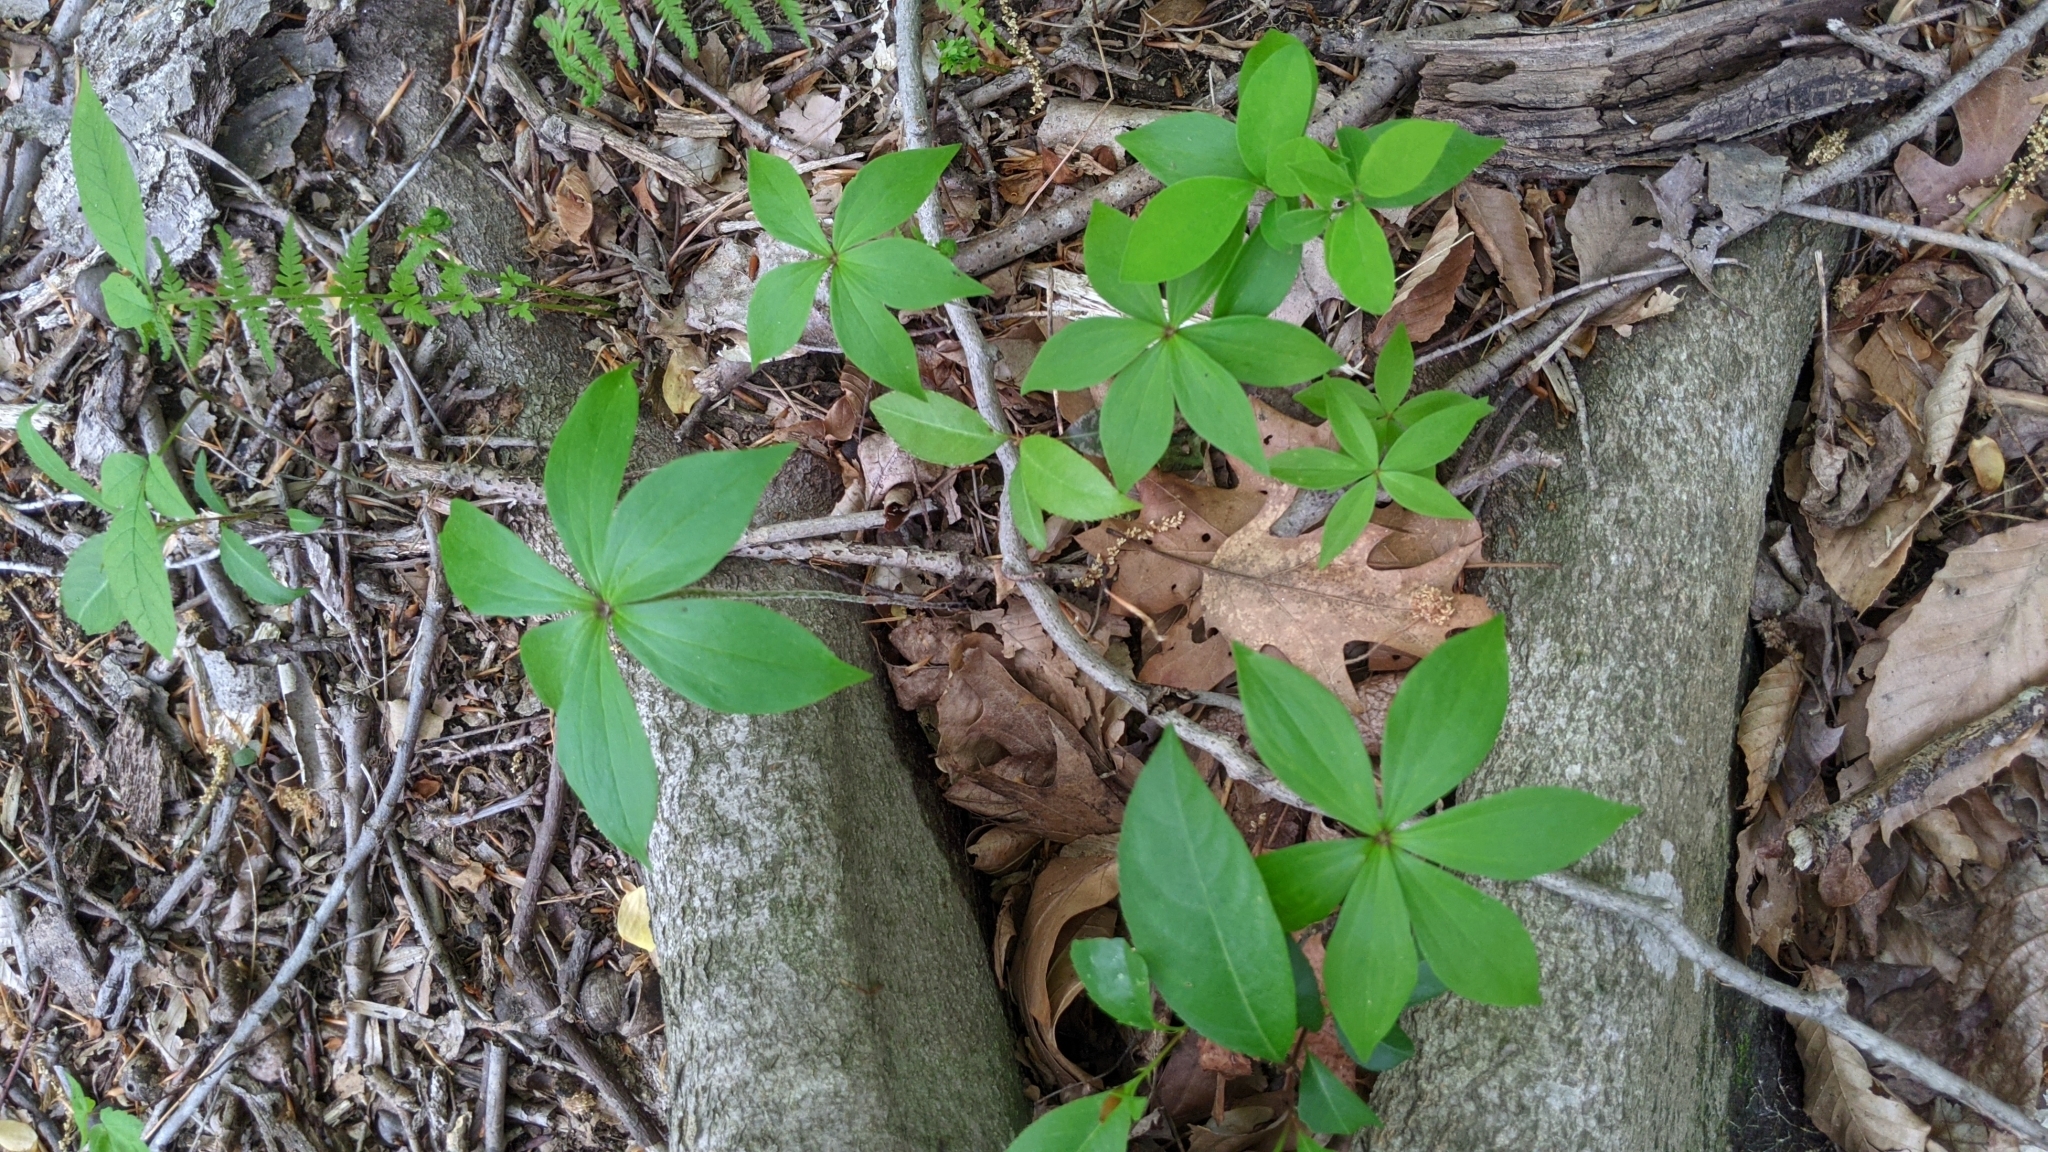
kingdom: Plantae
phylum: Tracheophyta
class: Liliopsida
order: Liliales
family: Liliaceae
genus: Medeola
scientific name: Medeola virginiana
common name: Indian cucumber-root
